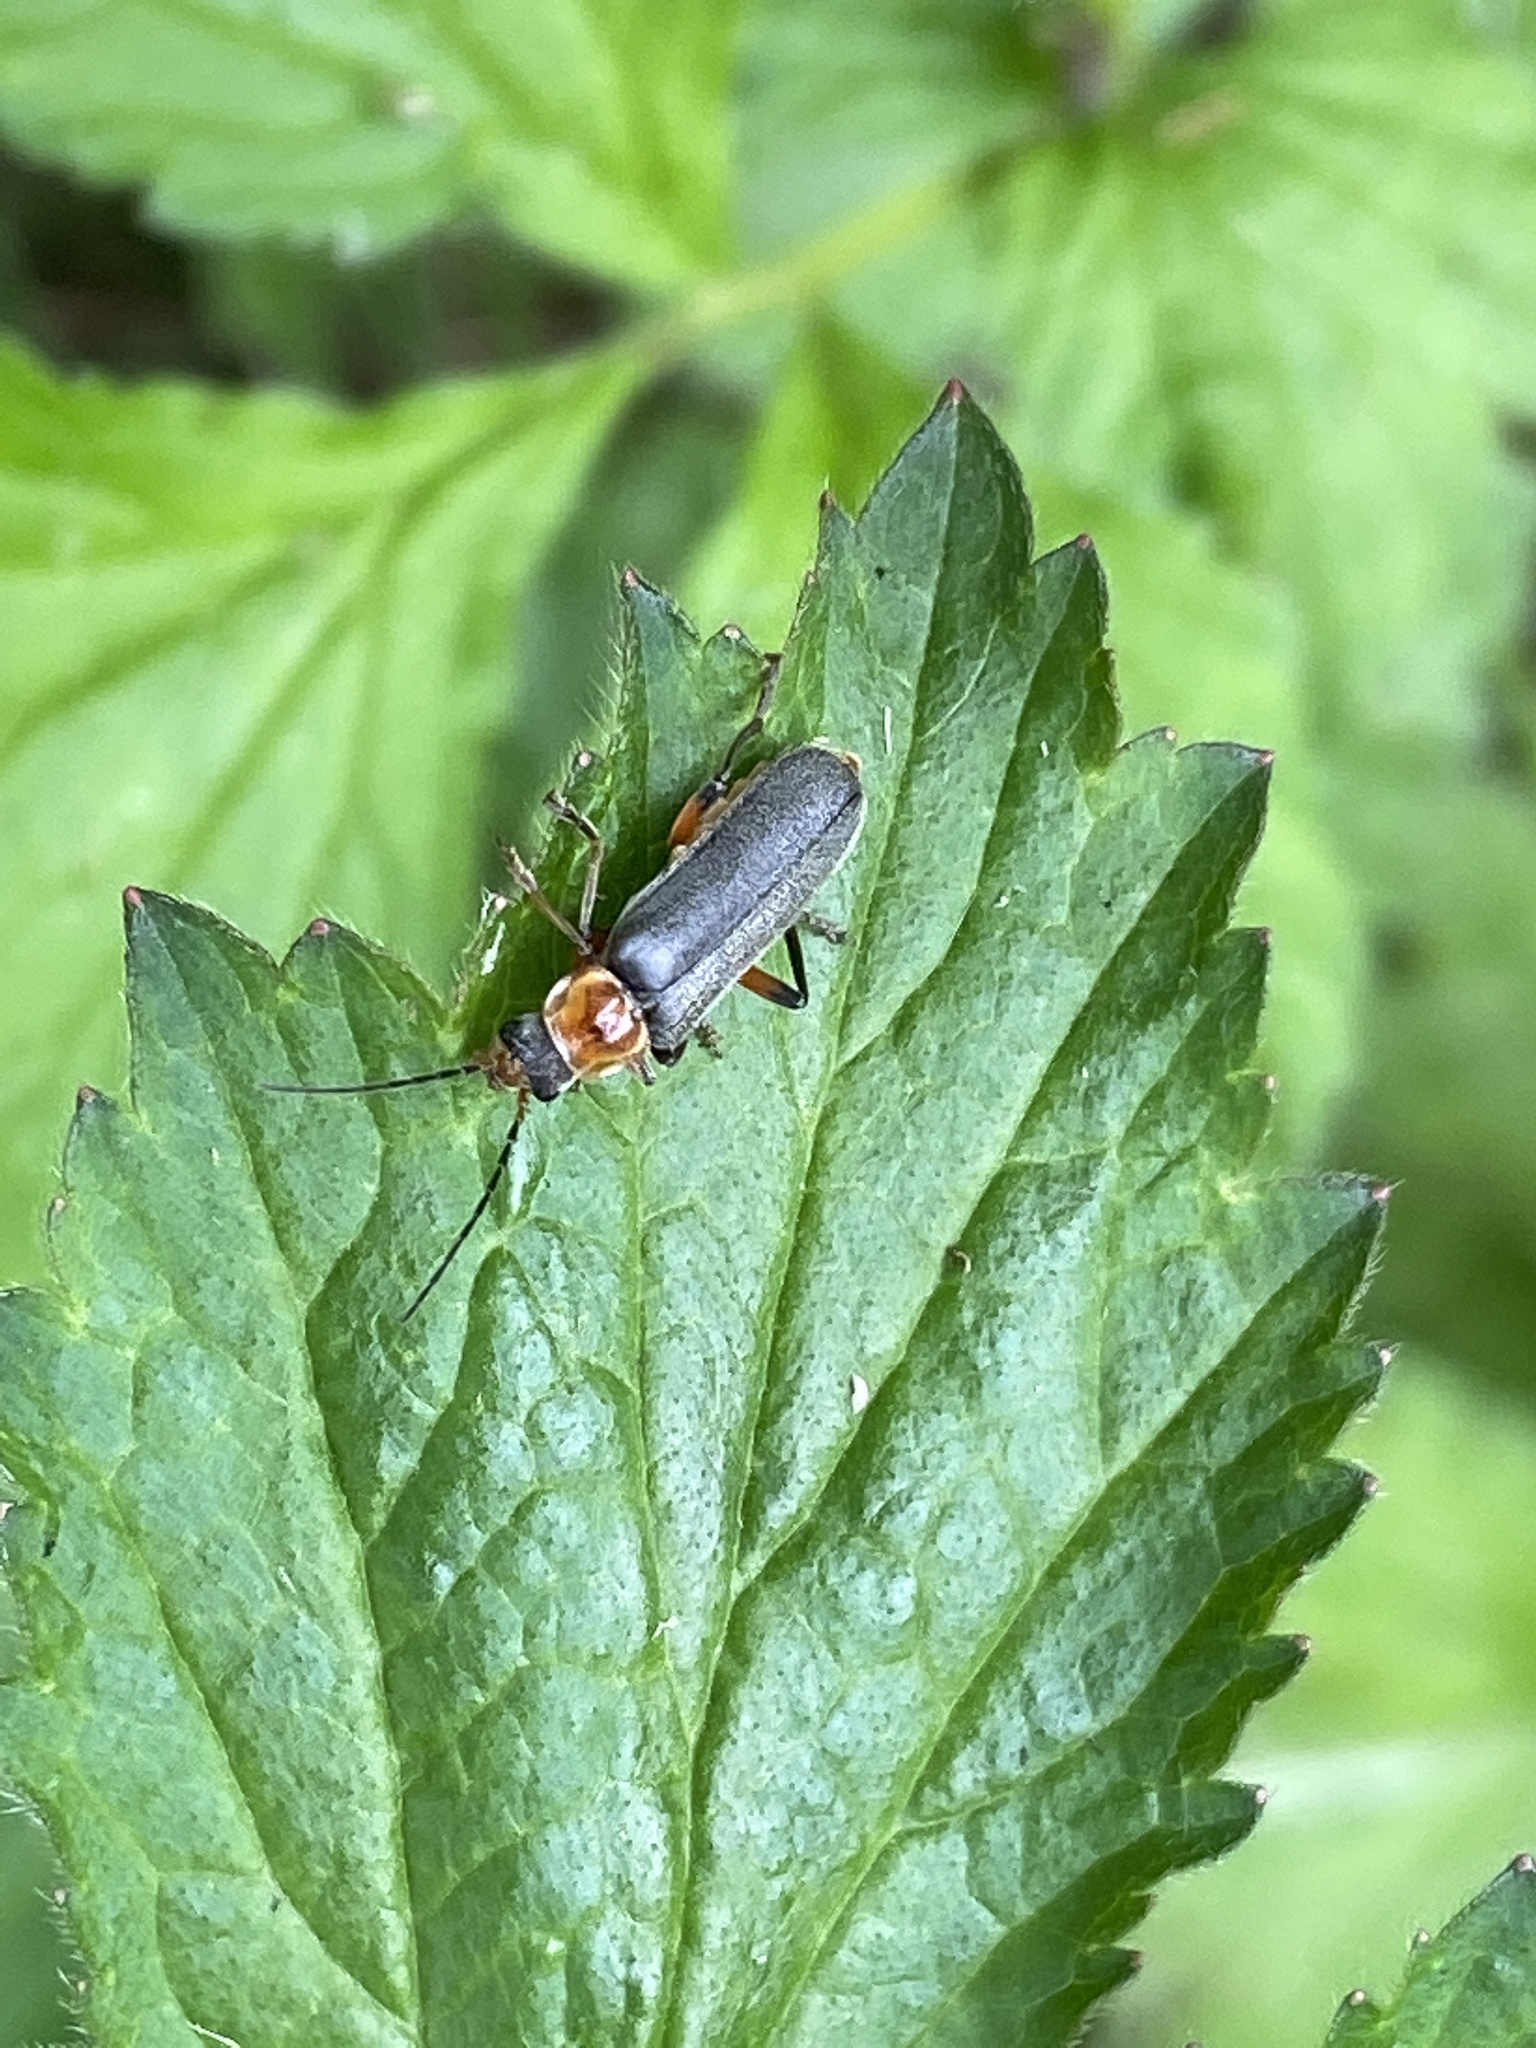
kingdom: Animalia
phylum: Arthropoda
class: Insecta
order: Coleoptera
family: Cantharidae
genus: Cantharis
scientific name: Cantharis nigricans
